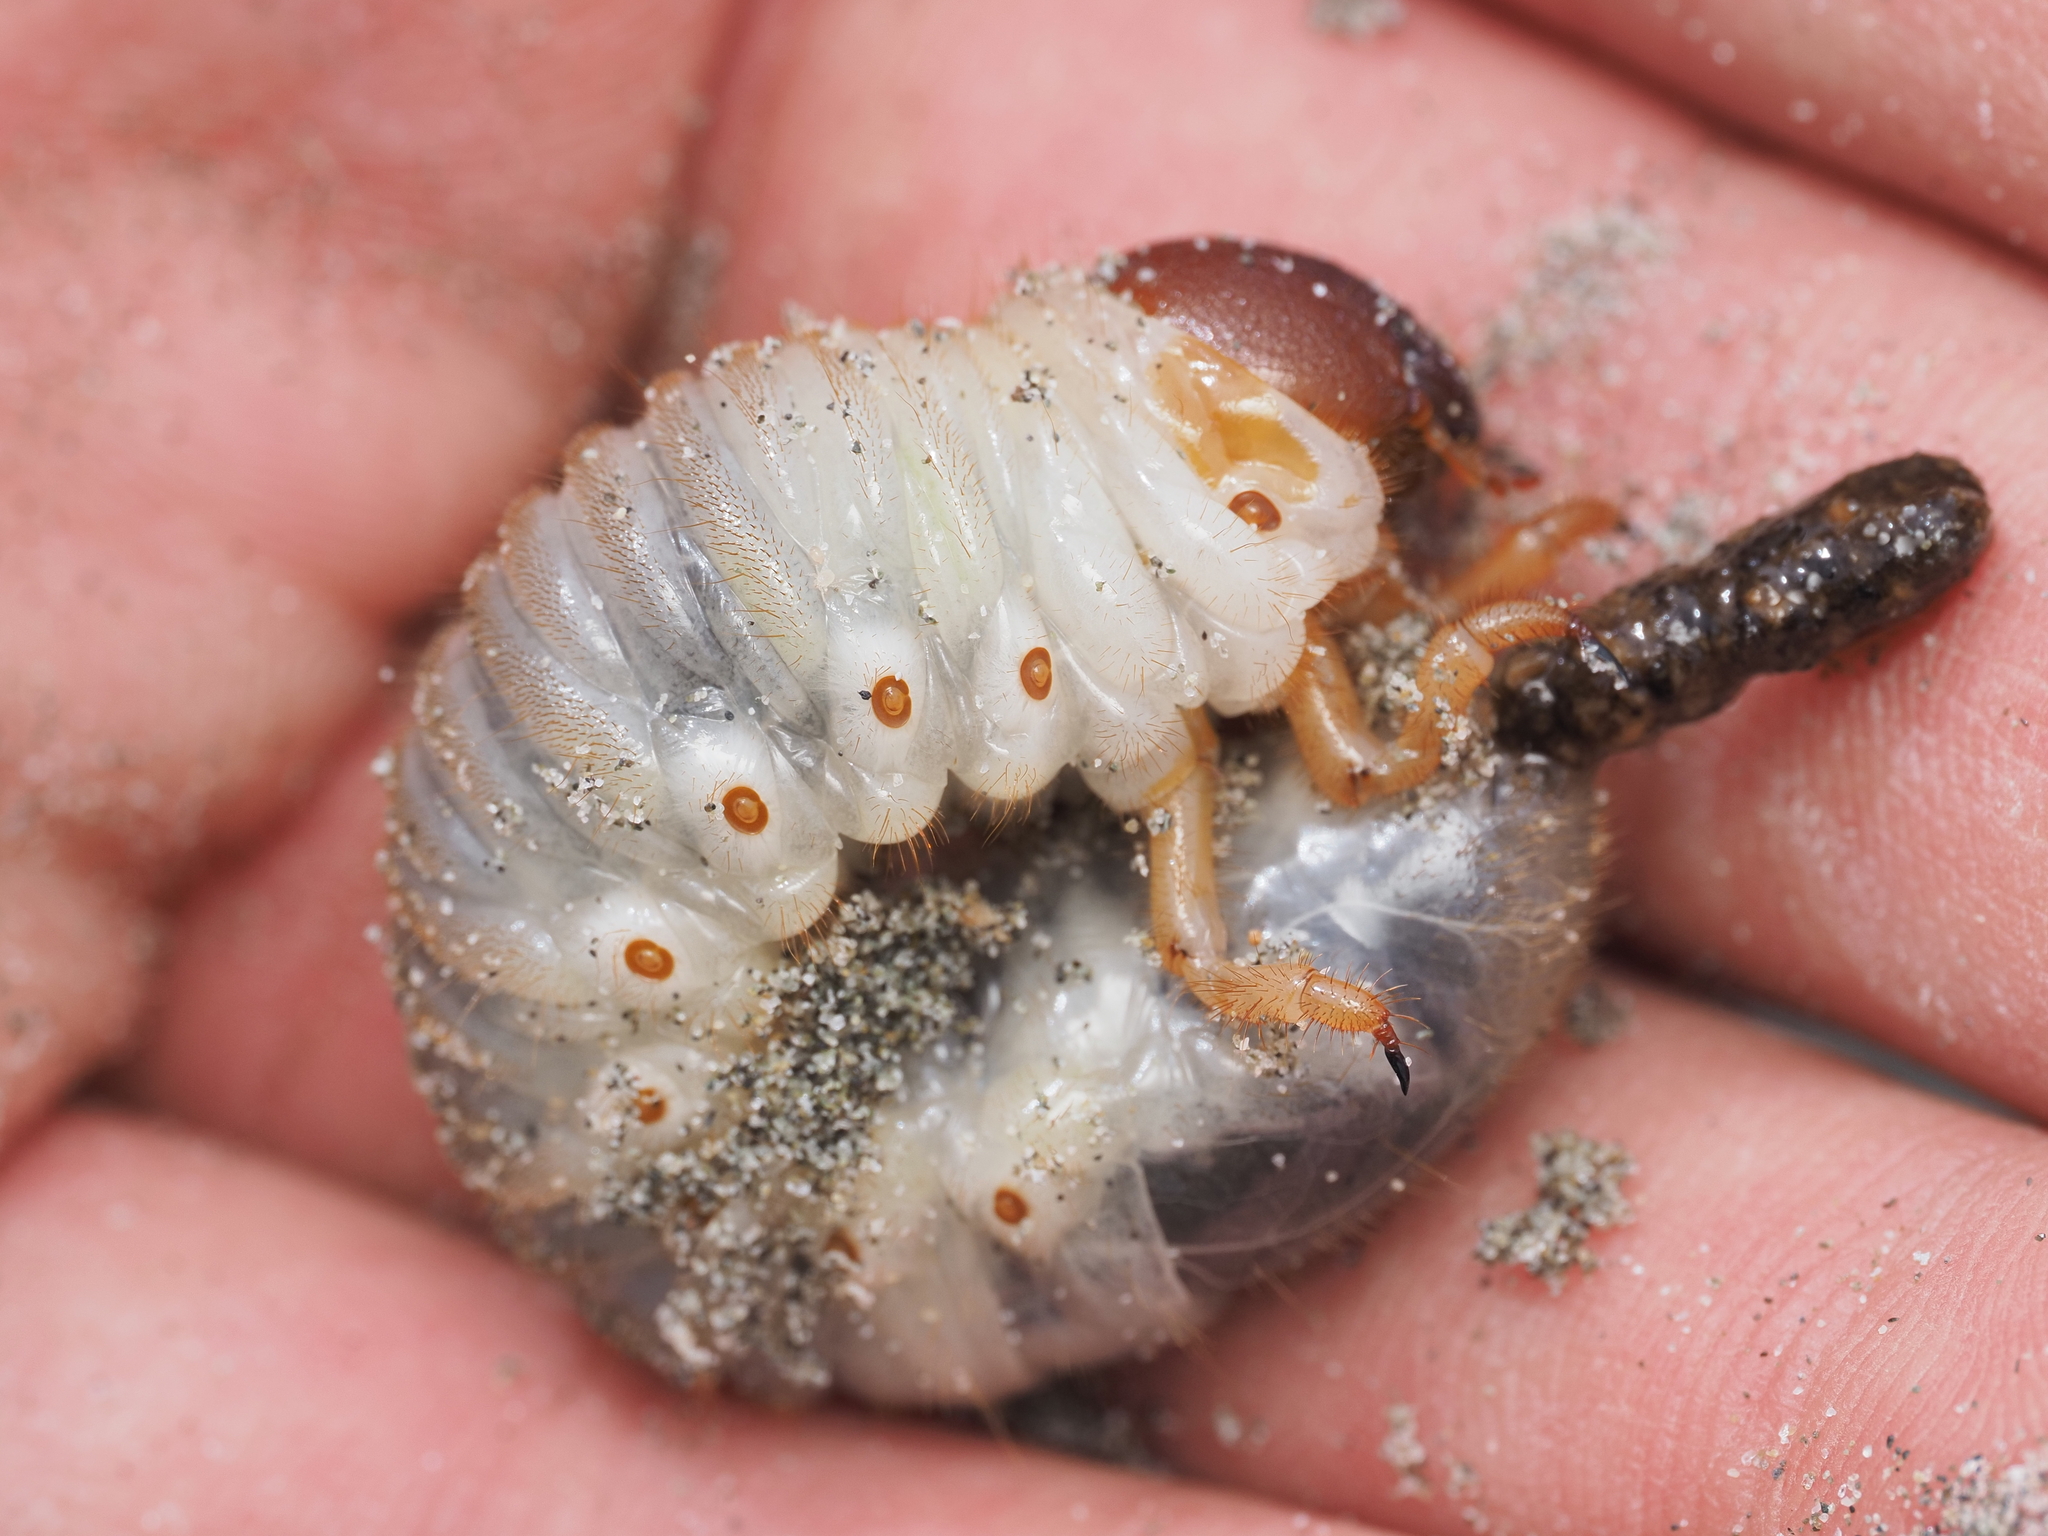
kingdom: Animalia
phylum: Arthropoda
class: Insecta
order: Coleoptera
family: Scarabaeidae
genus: Pericoptus
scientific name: Pericoptus truncatus
